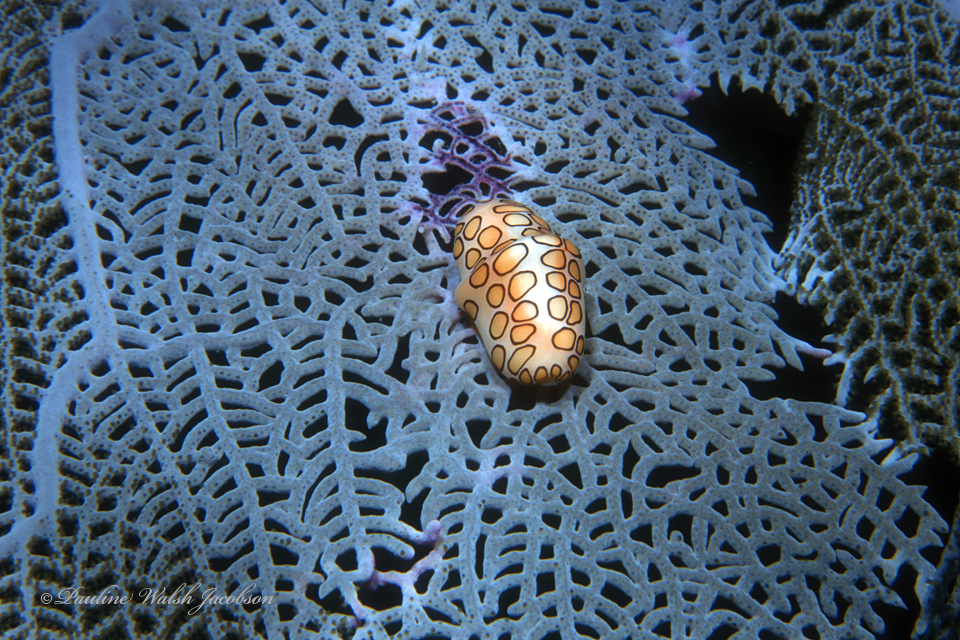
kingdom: Animalia
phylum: Mollusca
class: Gastropoda
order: Littorinimorpha
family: Ovulidae
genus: Cyphoma
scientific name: Cyphoma gibbosum
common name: Flamingo tongue
